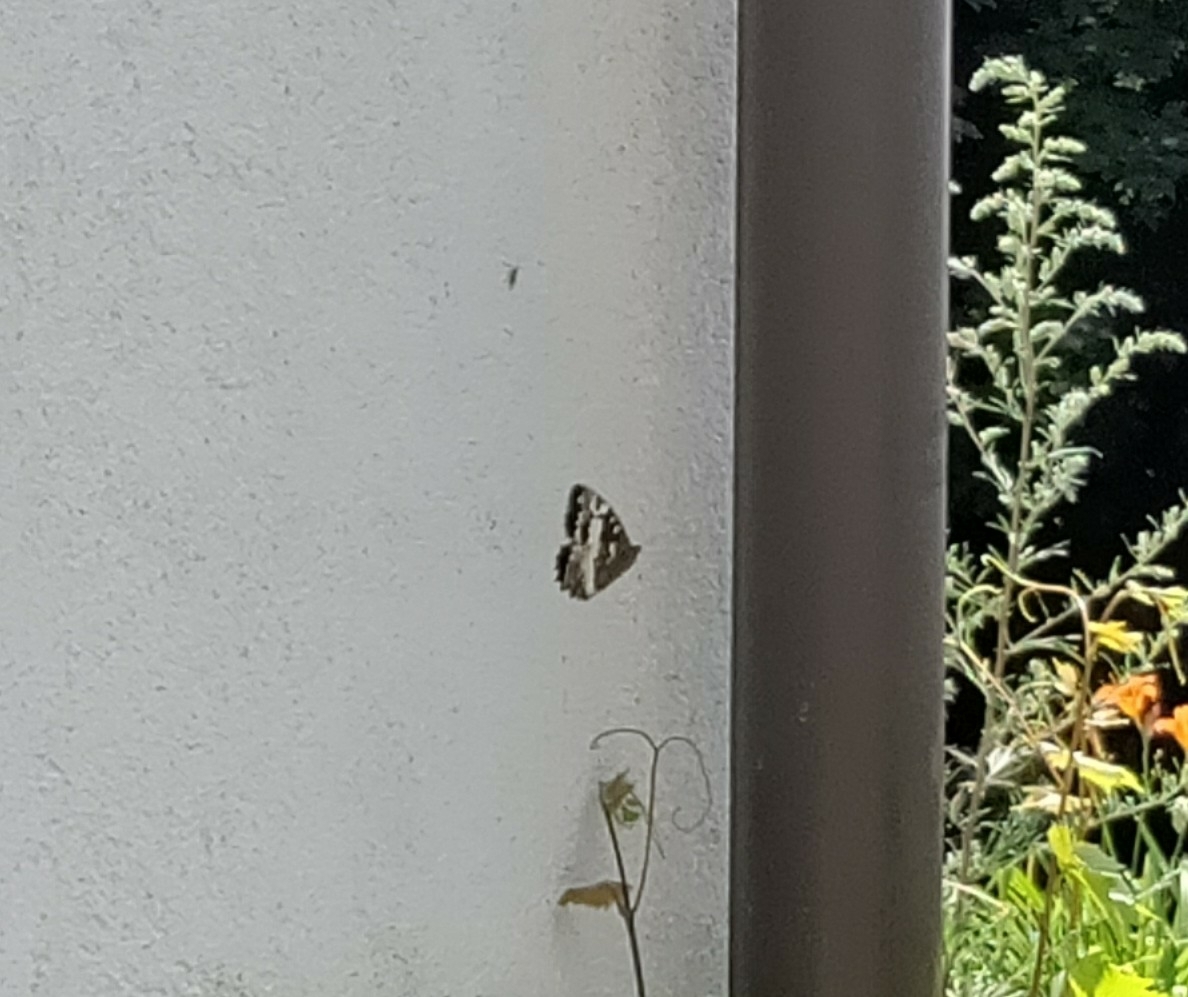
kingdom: Animalia
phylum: Arthropoda
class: Insecta
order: Lepidoptera
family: Lycaenidae
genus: Loweia
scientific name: Loweia tityrus
